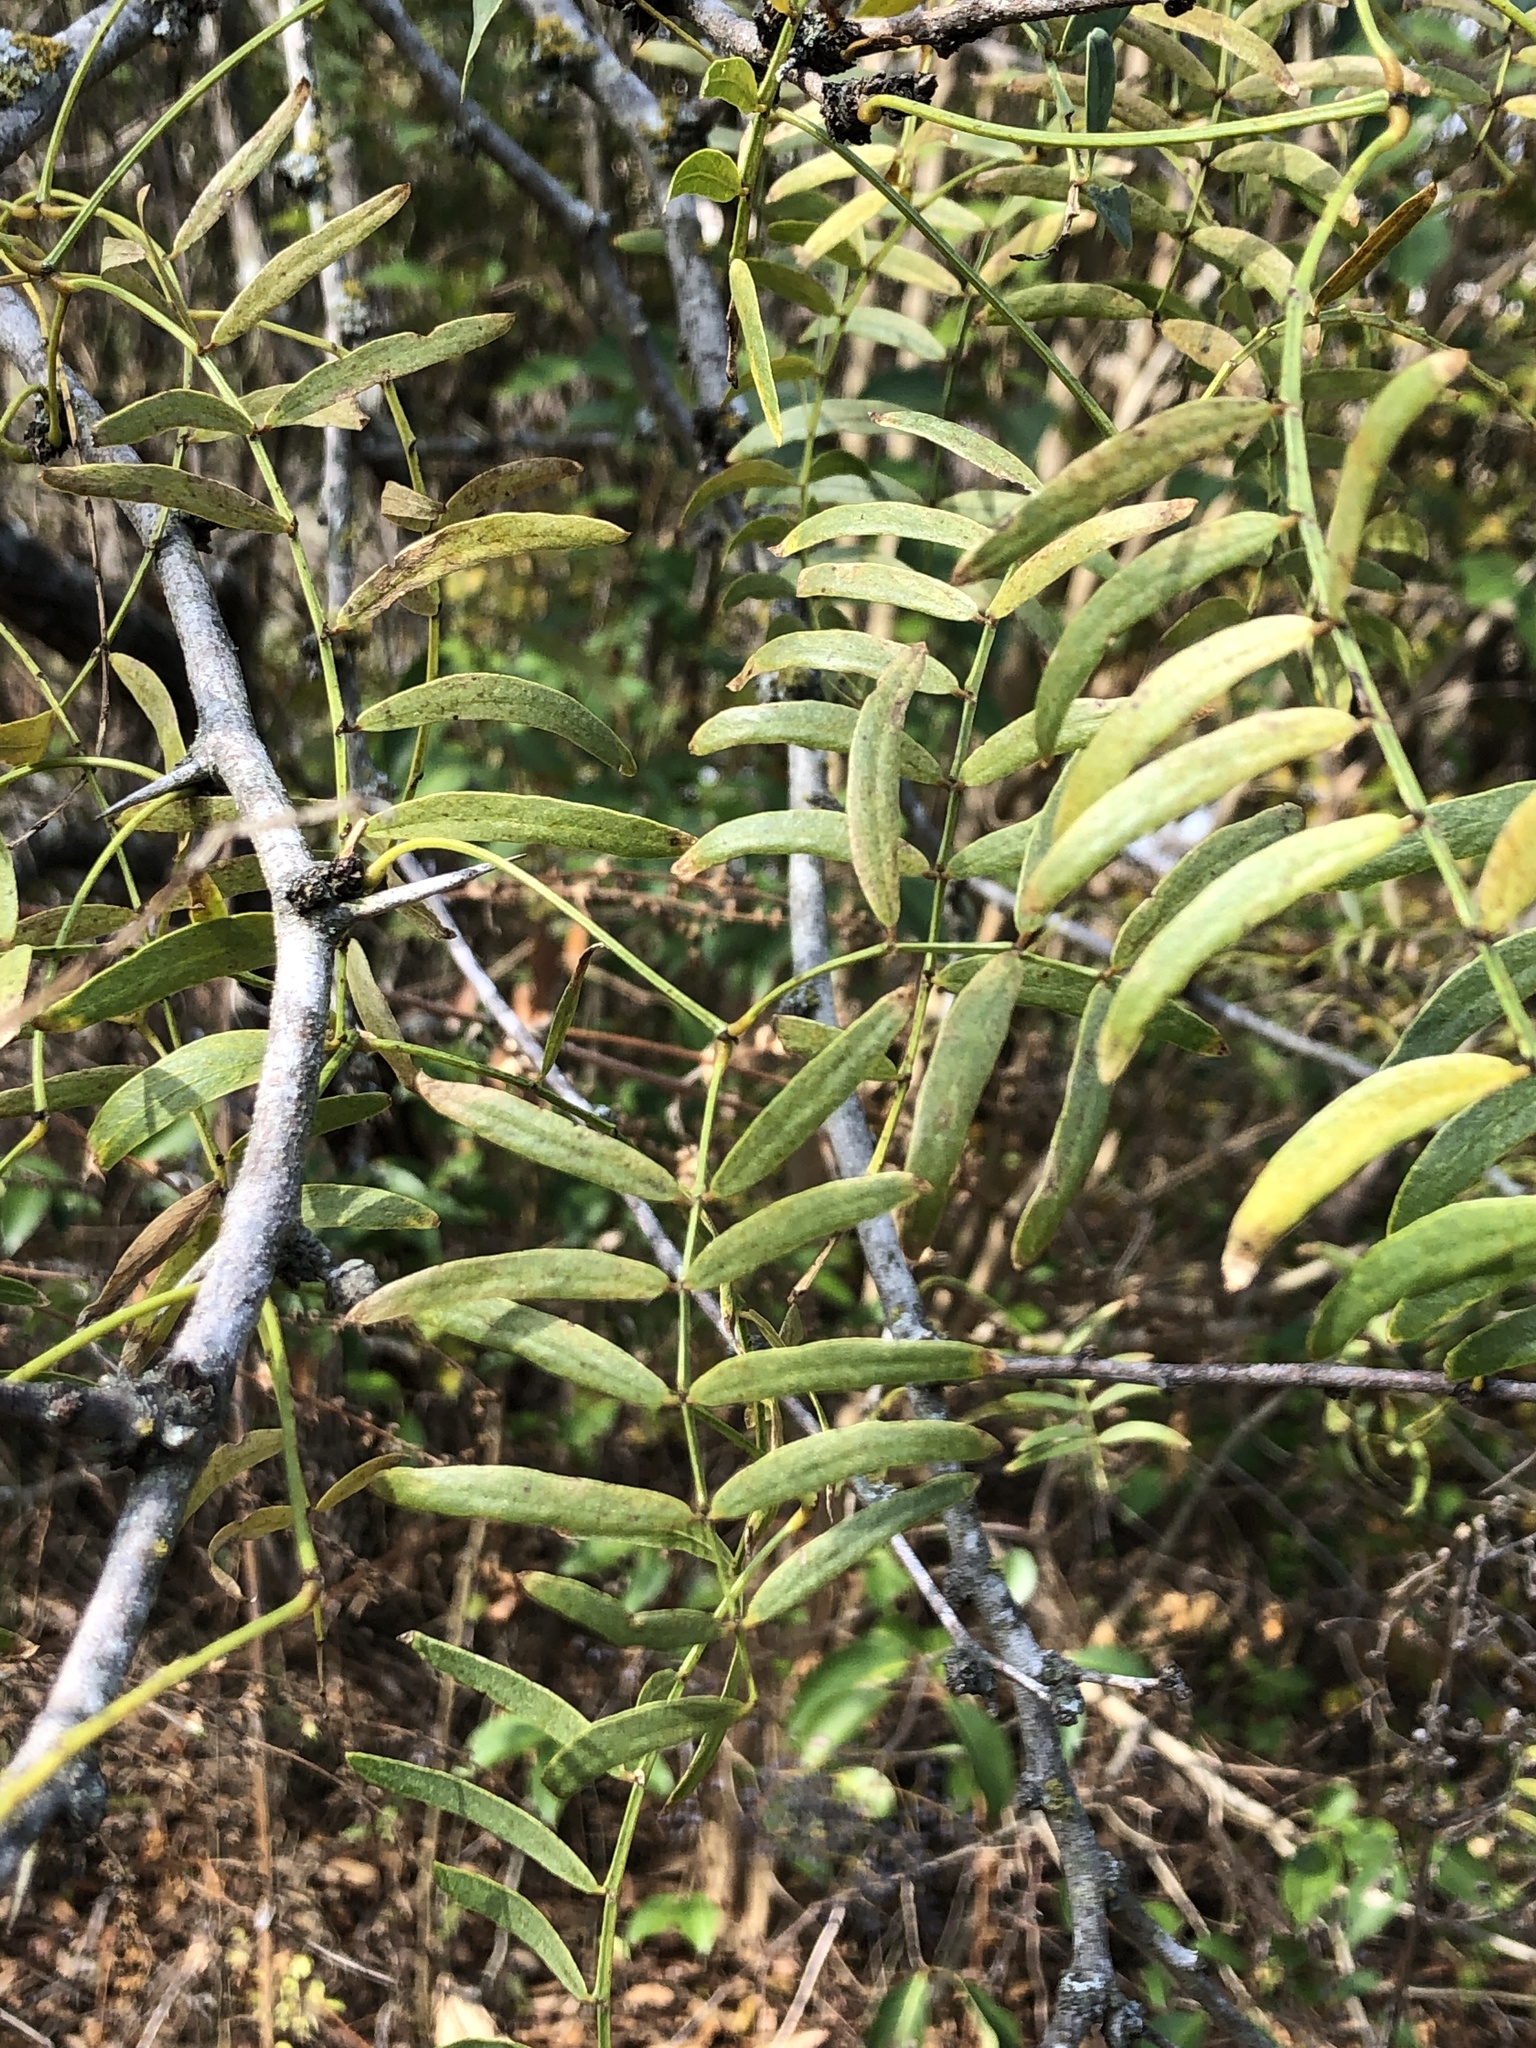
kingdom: Plantae
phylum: Tracheophyta
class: Magnoliopsida
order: Fabales
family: Fabaceae
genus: Prosopis
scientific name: Prosopis glandulosa
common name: Honey mesquite
